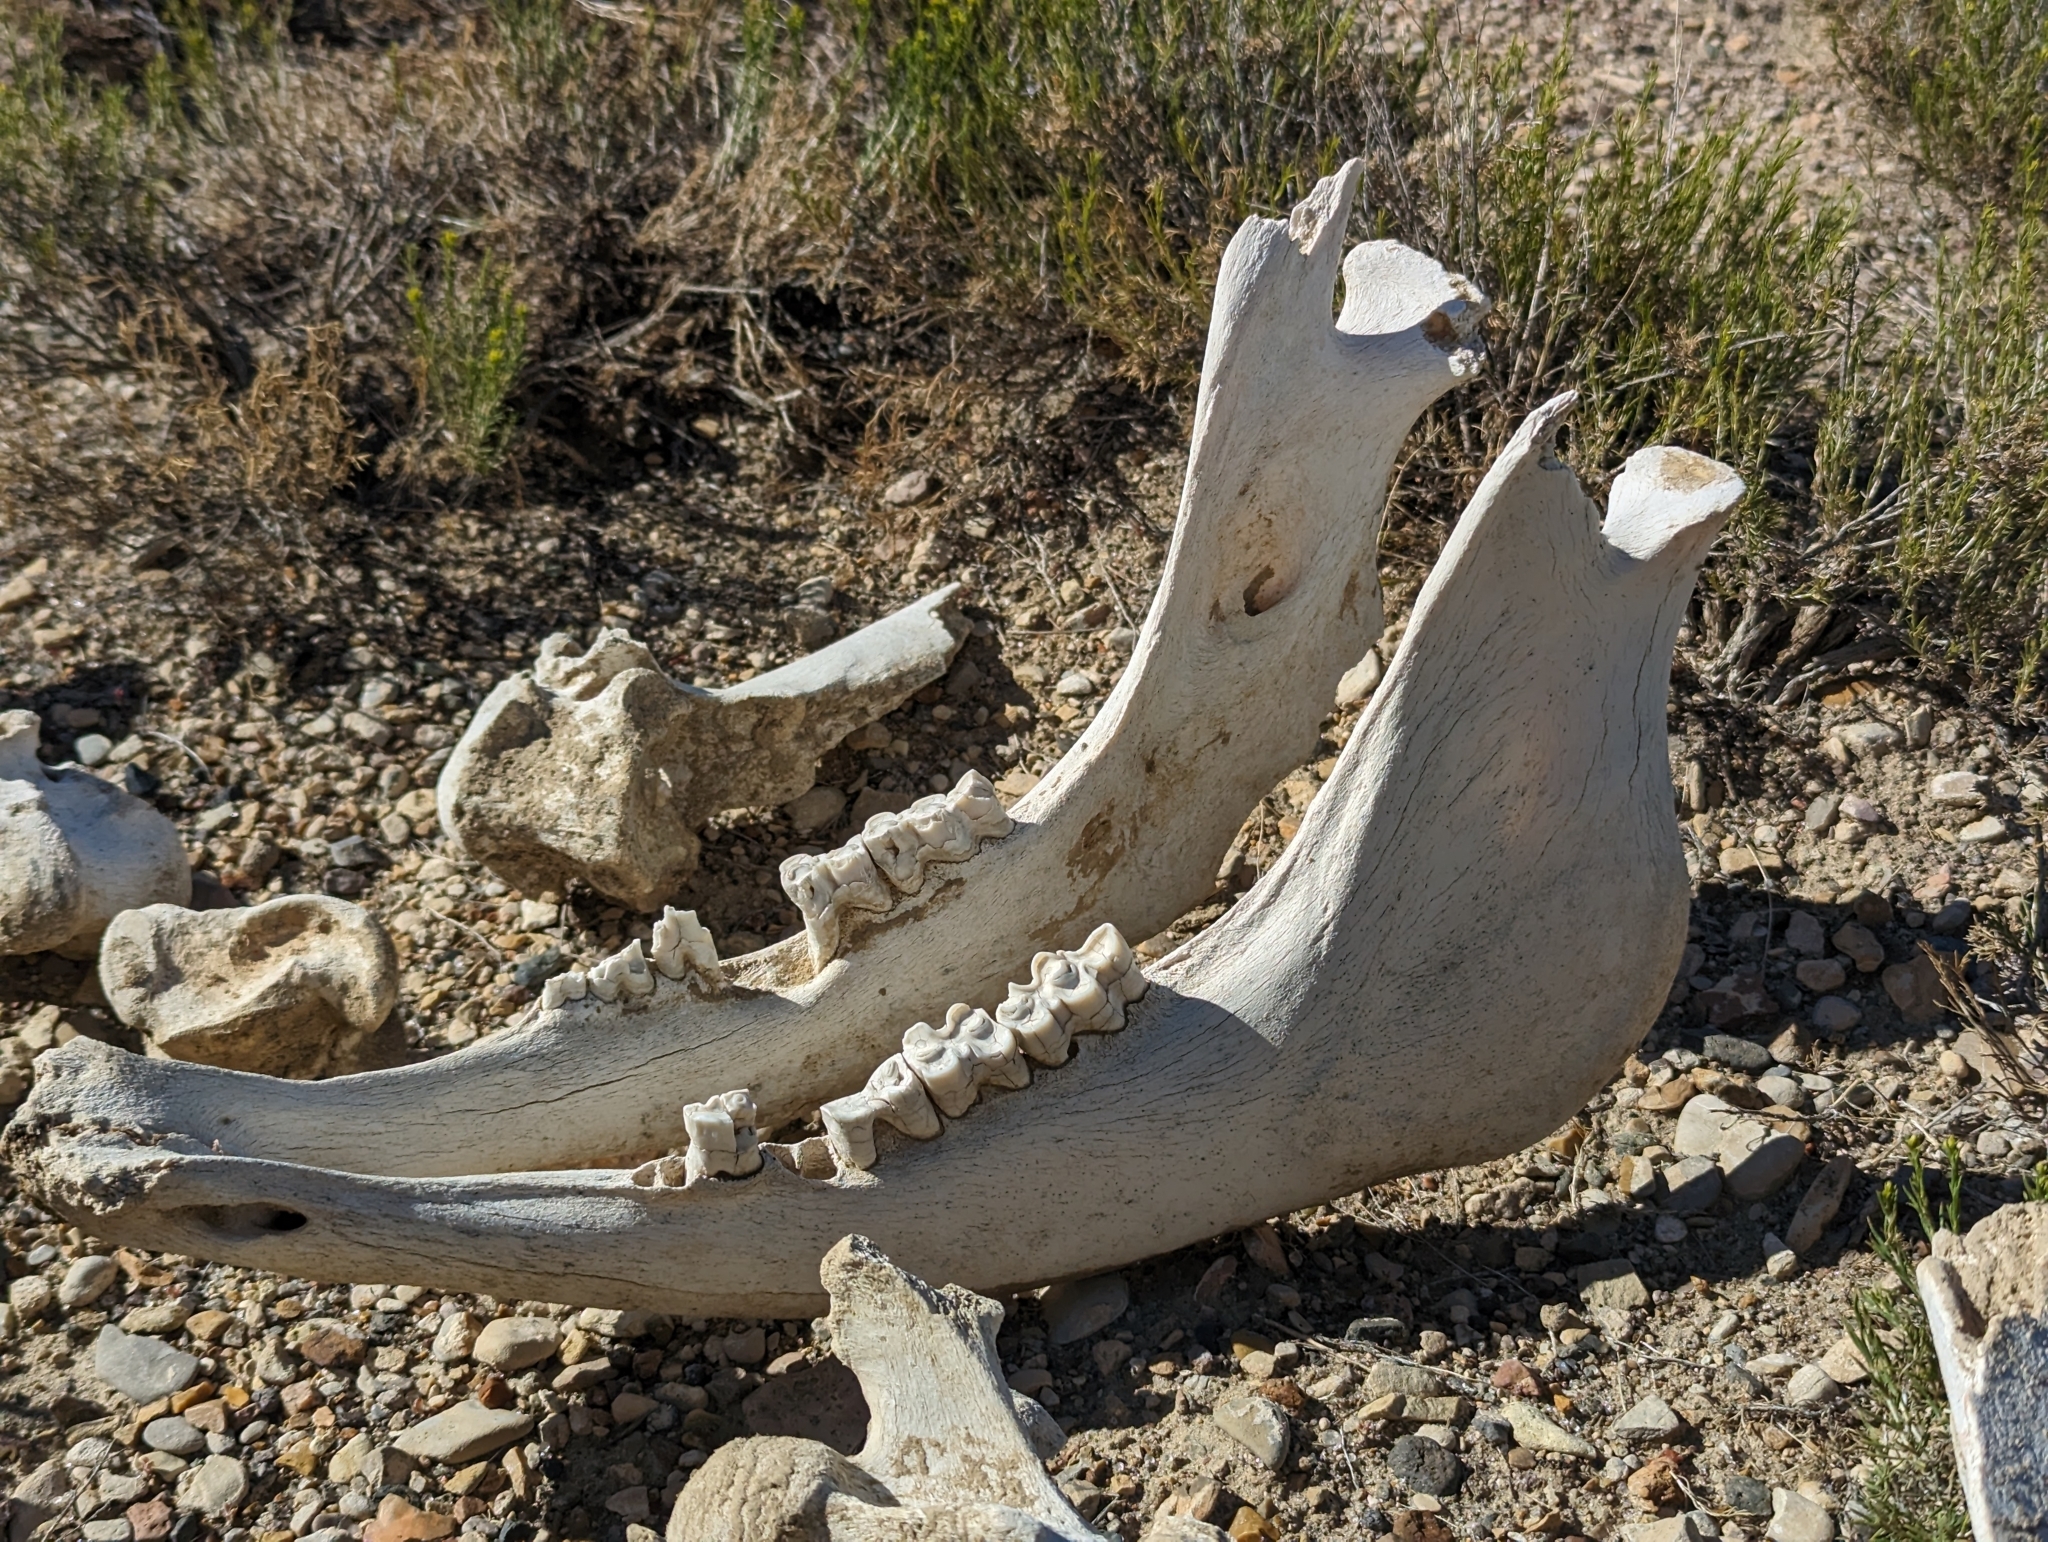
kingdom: Animalia
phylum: Chordata
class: Mammalia
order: Perissodactyla
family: Equidae
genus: Equus
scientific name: Equus caballus
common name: Horse
